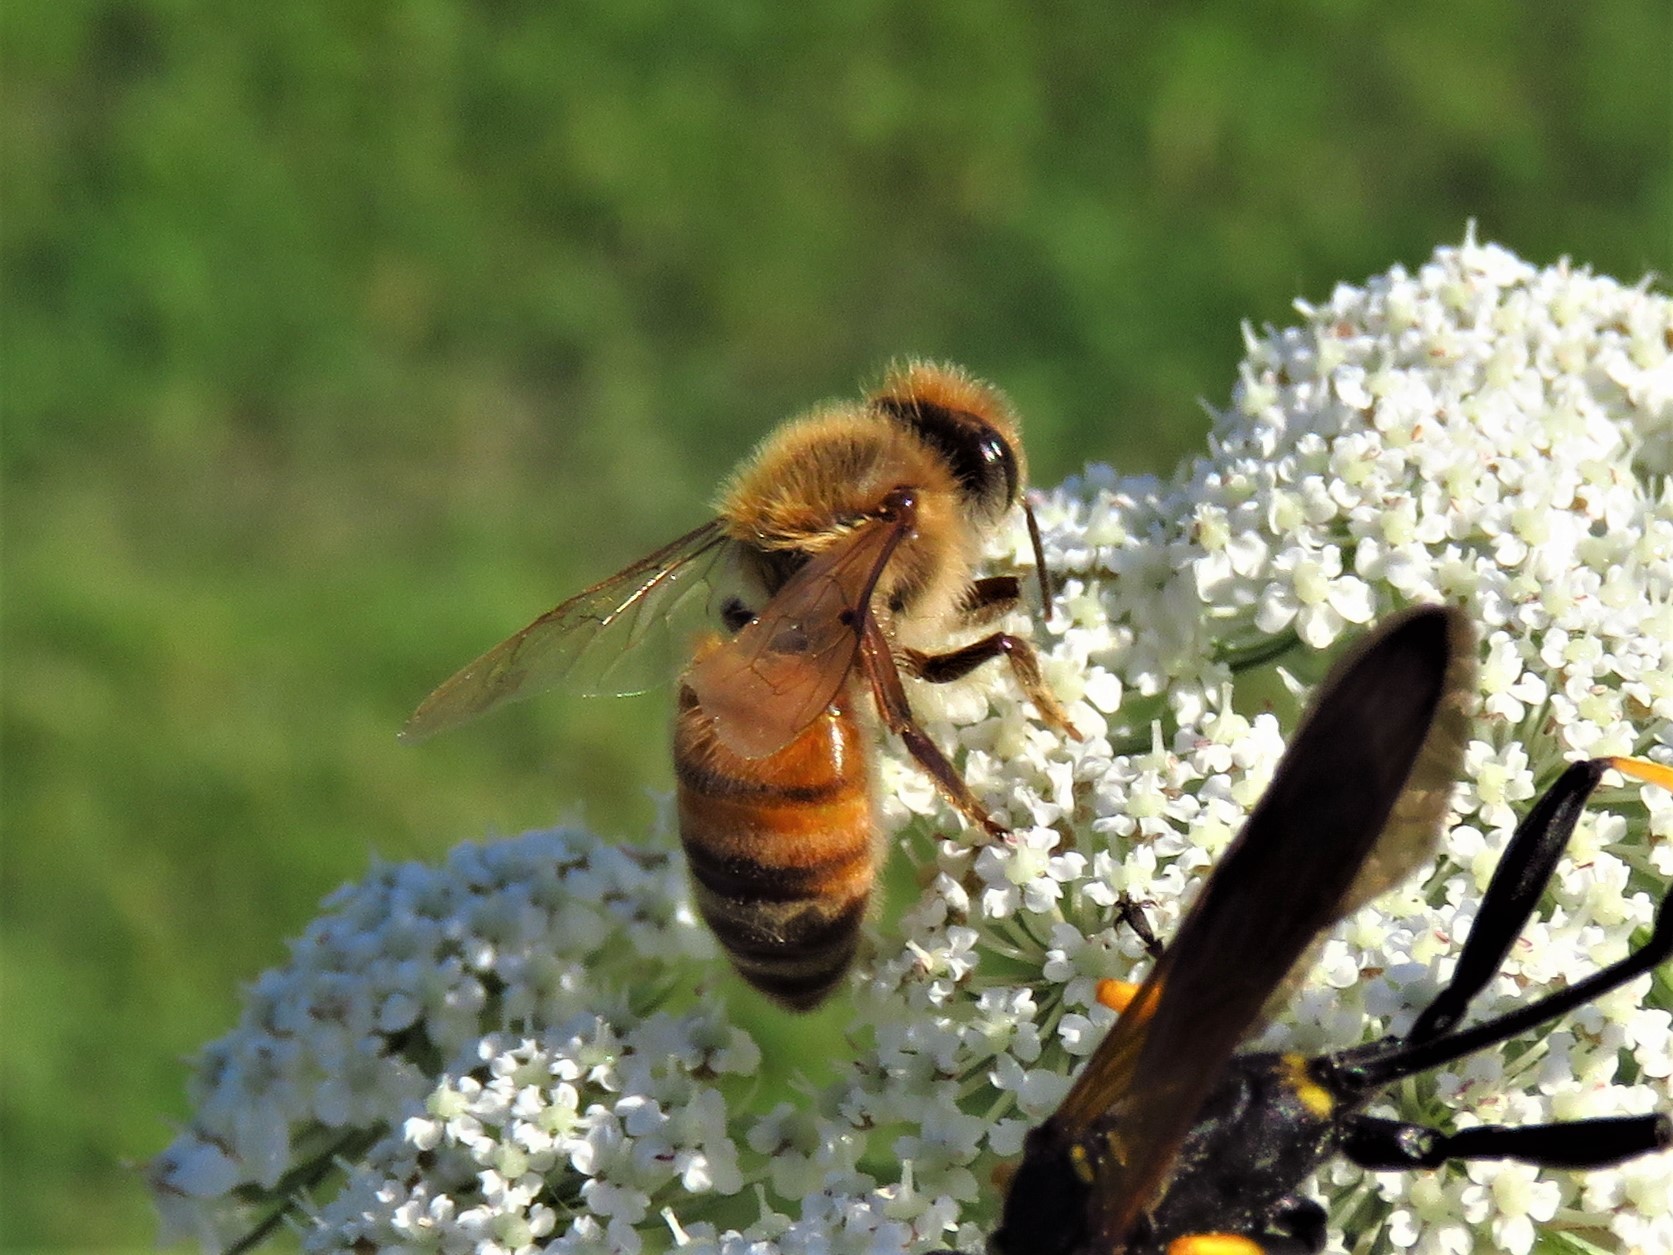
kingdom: Animalia
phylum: Arthropoda
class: Insecta
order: Hymenoptera
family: Apidae
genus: Apis
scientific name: Apis mellifera
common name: Honey bee
